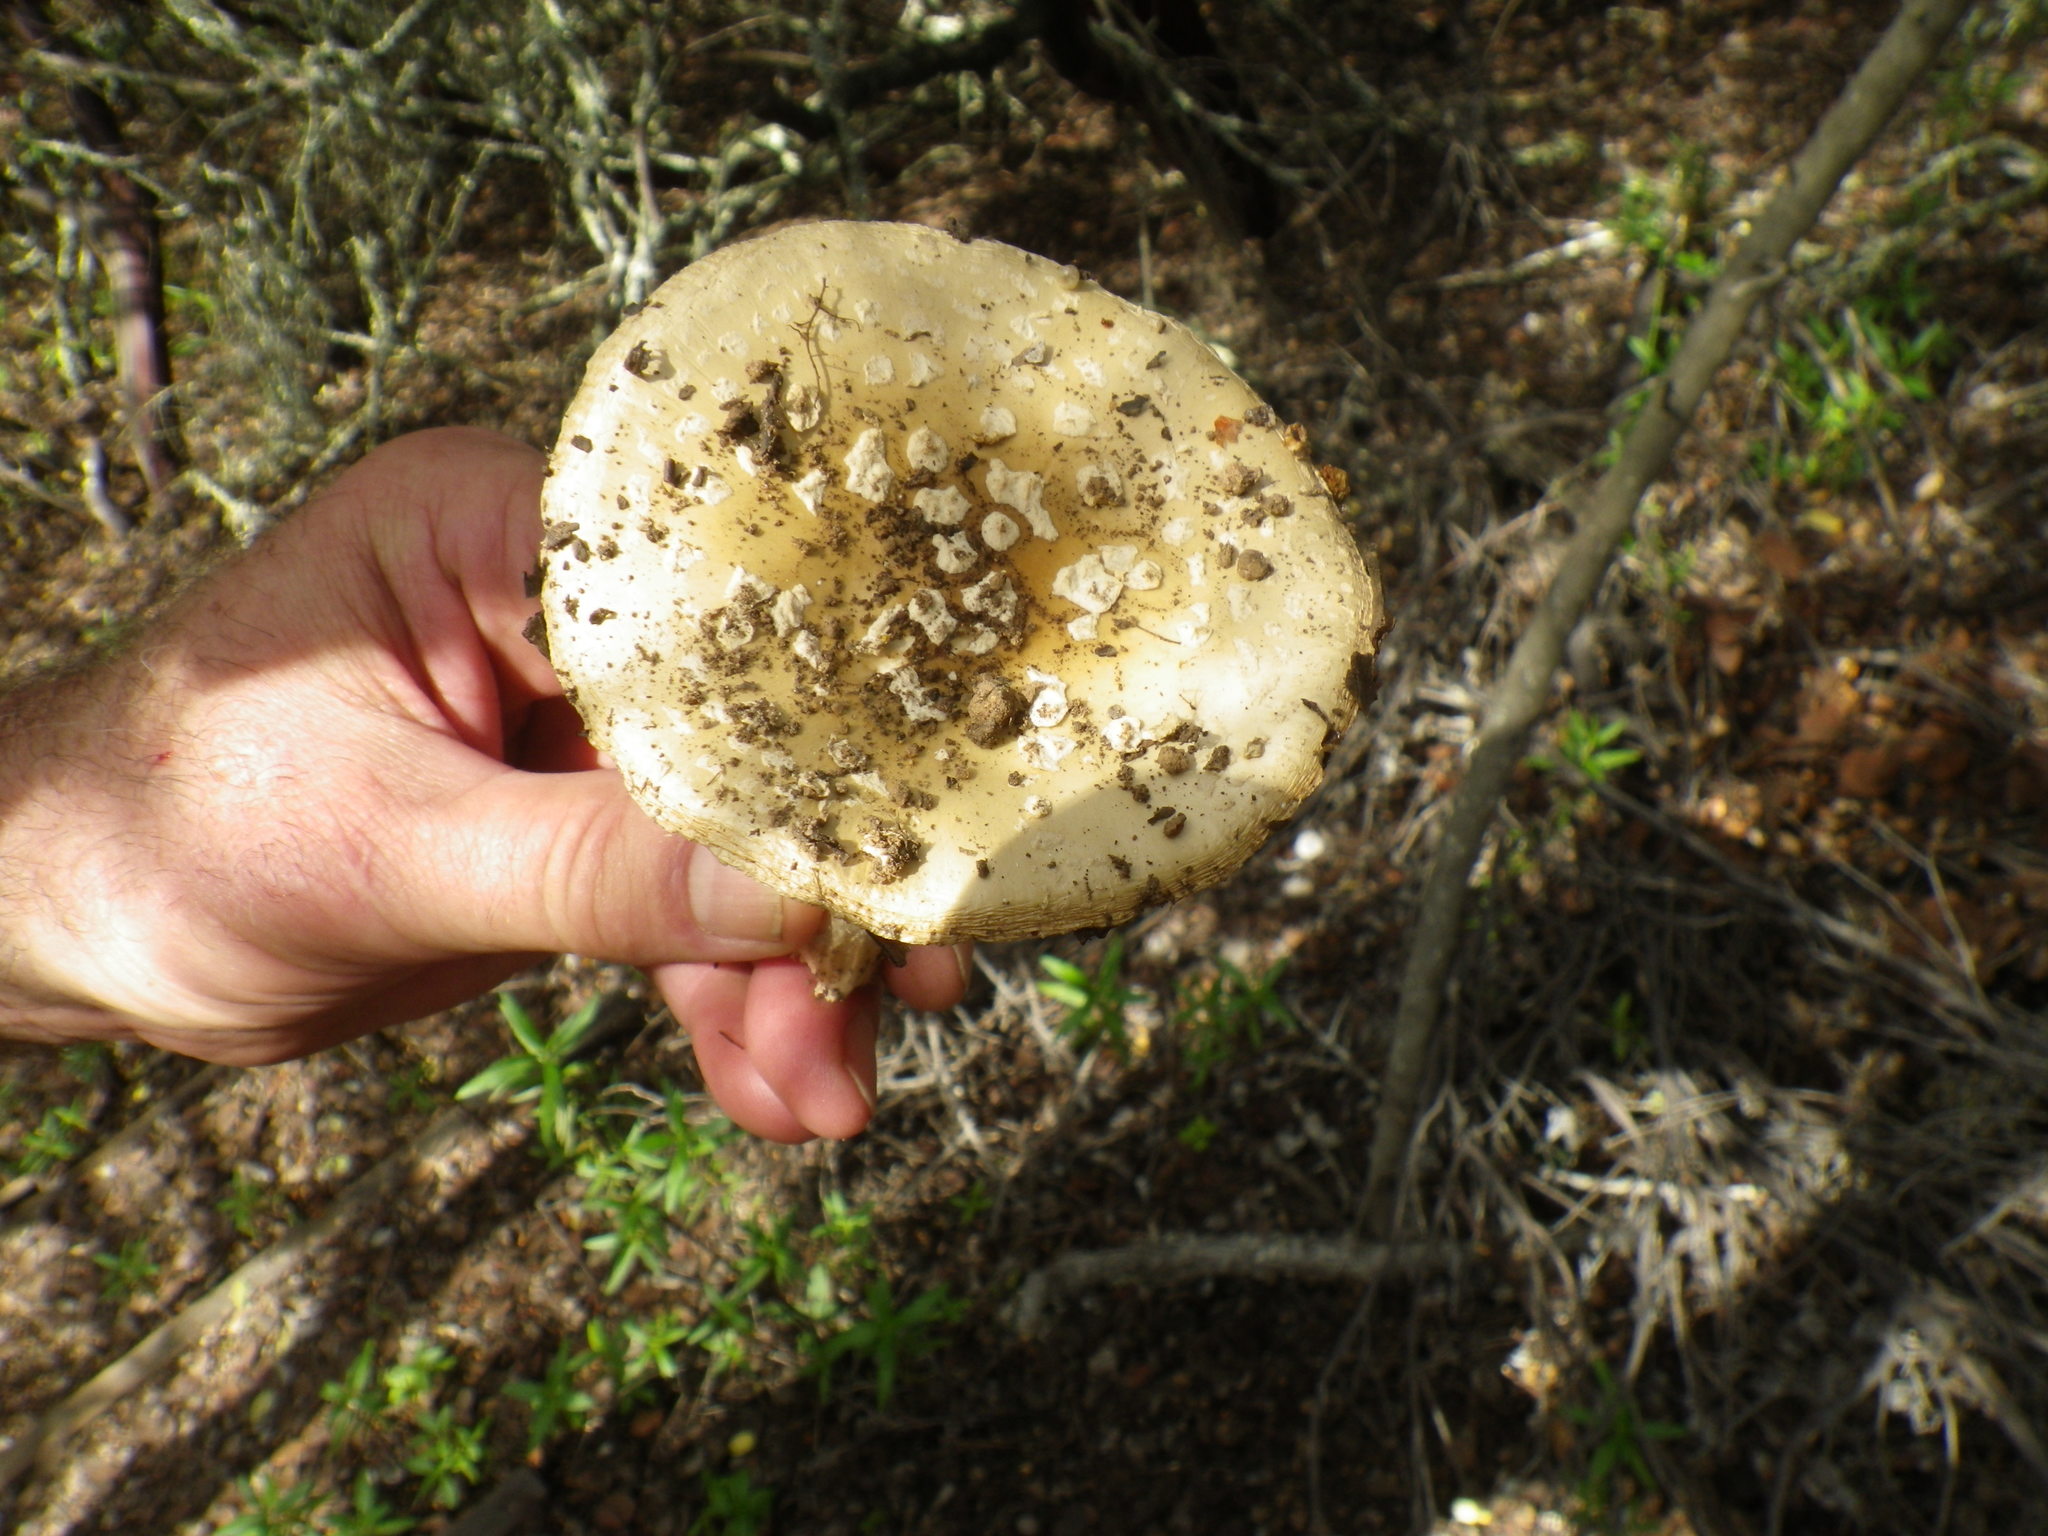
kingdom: Fungi
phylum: Basidiomycota
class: Agaricomycetes
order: Agaricales
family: Amanitaceae
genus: Amanita
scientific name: Amanita pantherina
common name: Panthercap
